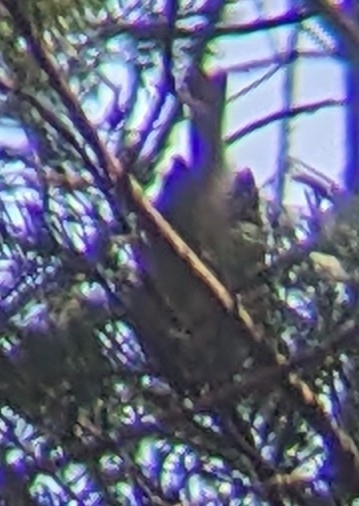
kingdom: Animalia
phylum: Chordata
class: Aves
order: Passeriformes
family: Acanthizidae
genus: Finschia
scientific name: Finschia novaeseelandiae
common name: Pipipi
